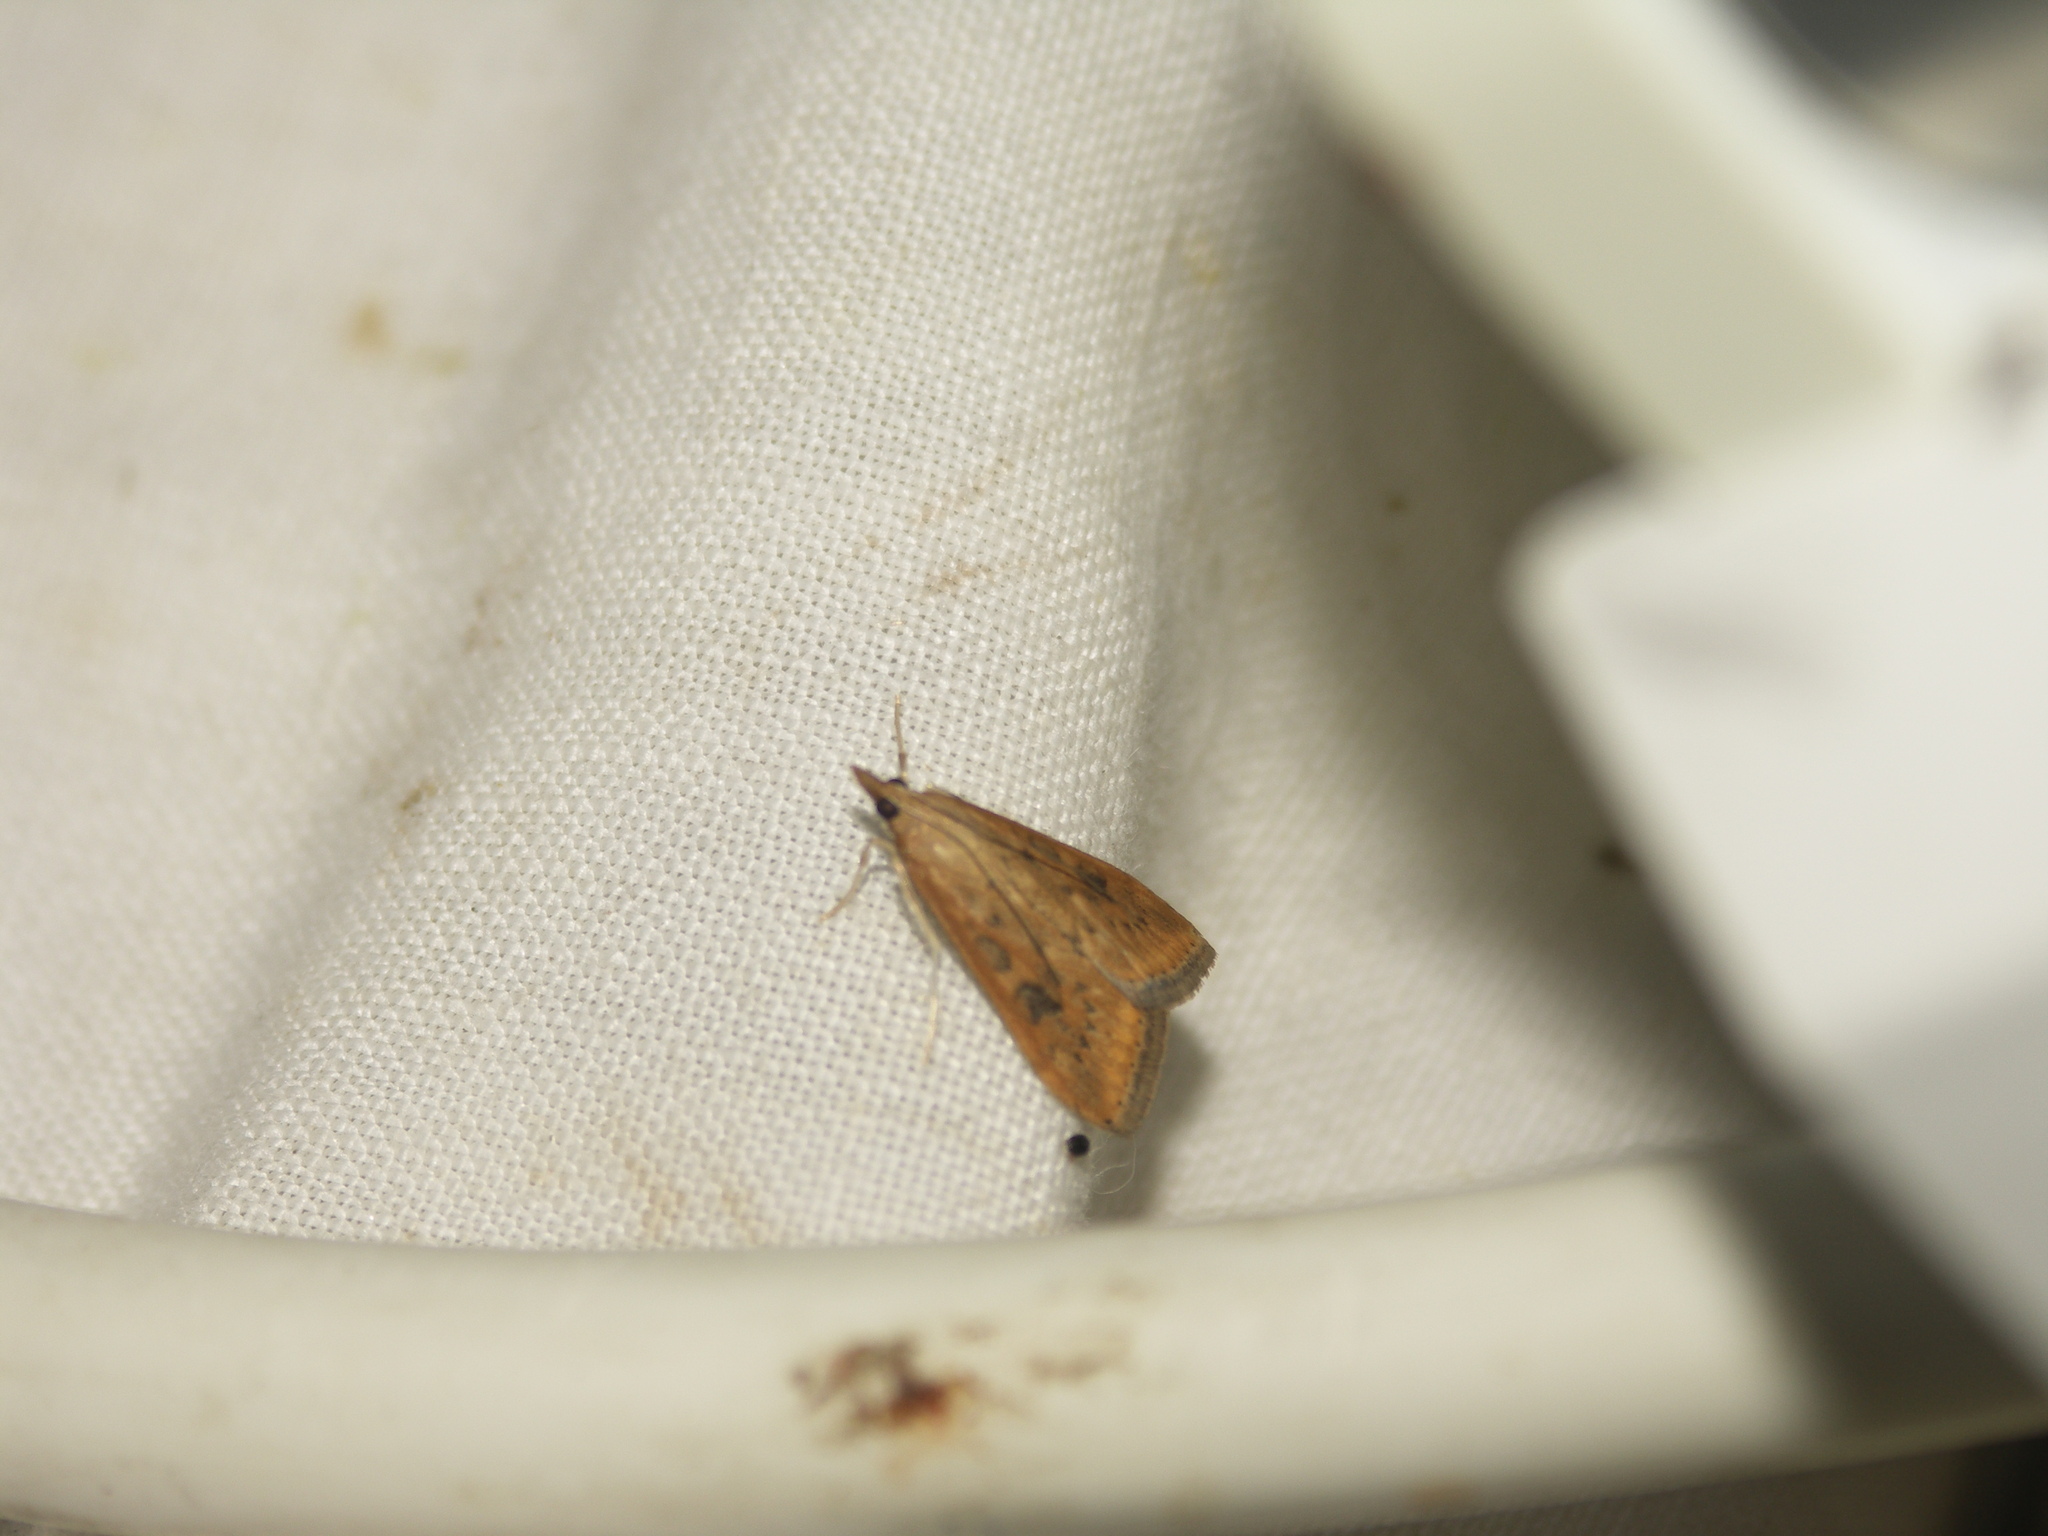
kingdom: Animalia
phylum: Arthropoda
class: Insecta
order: Lepidoptera
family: Crambidae
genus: Udea
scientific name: Udea ferrugalis
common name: Rusty dot
